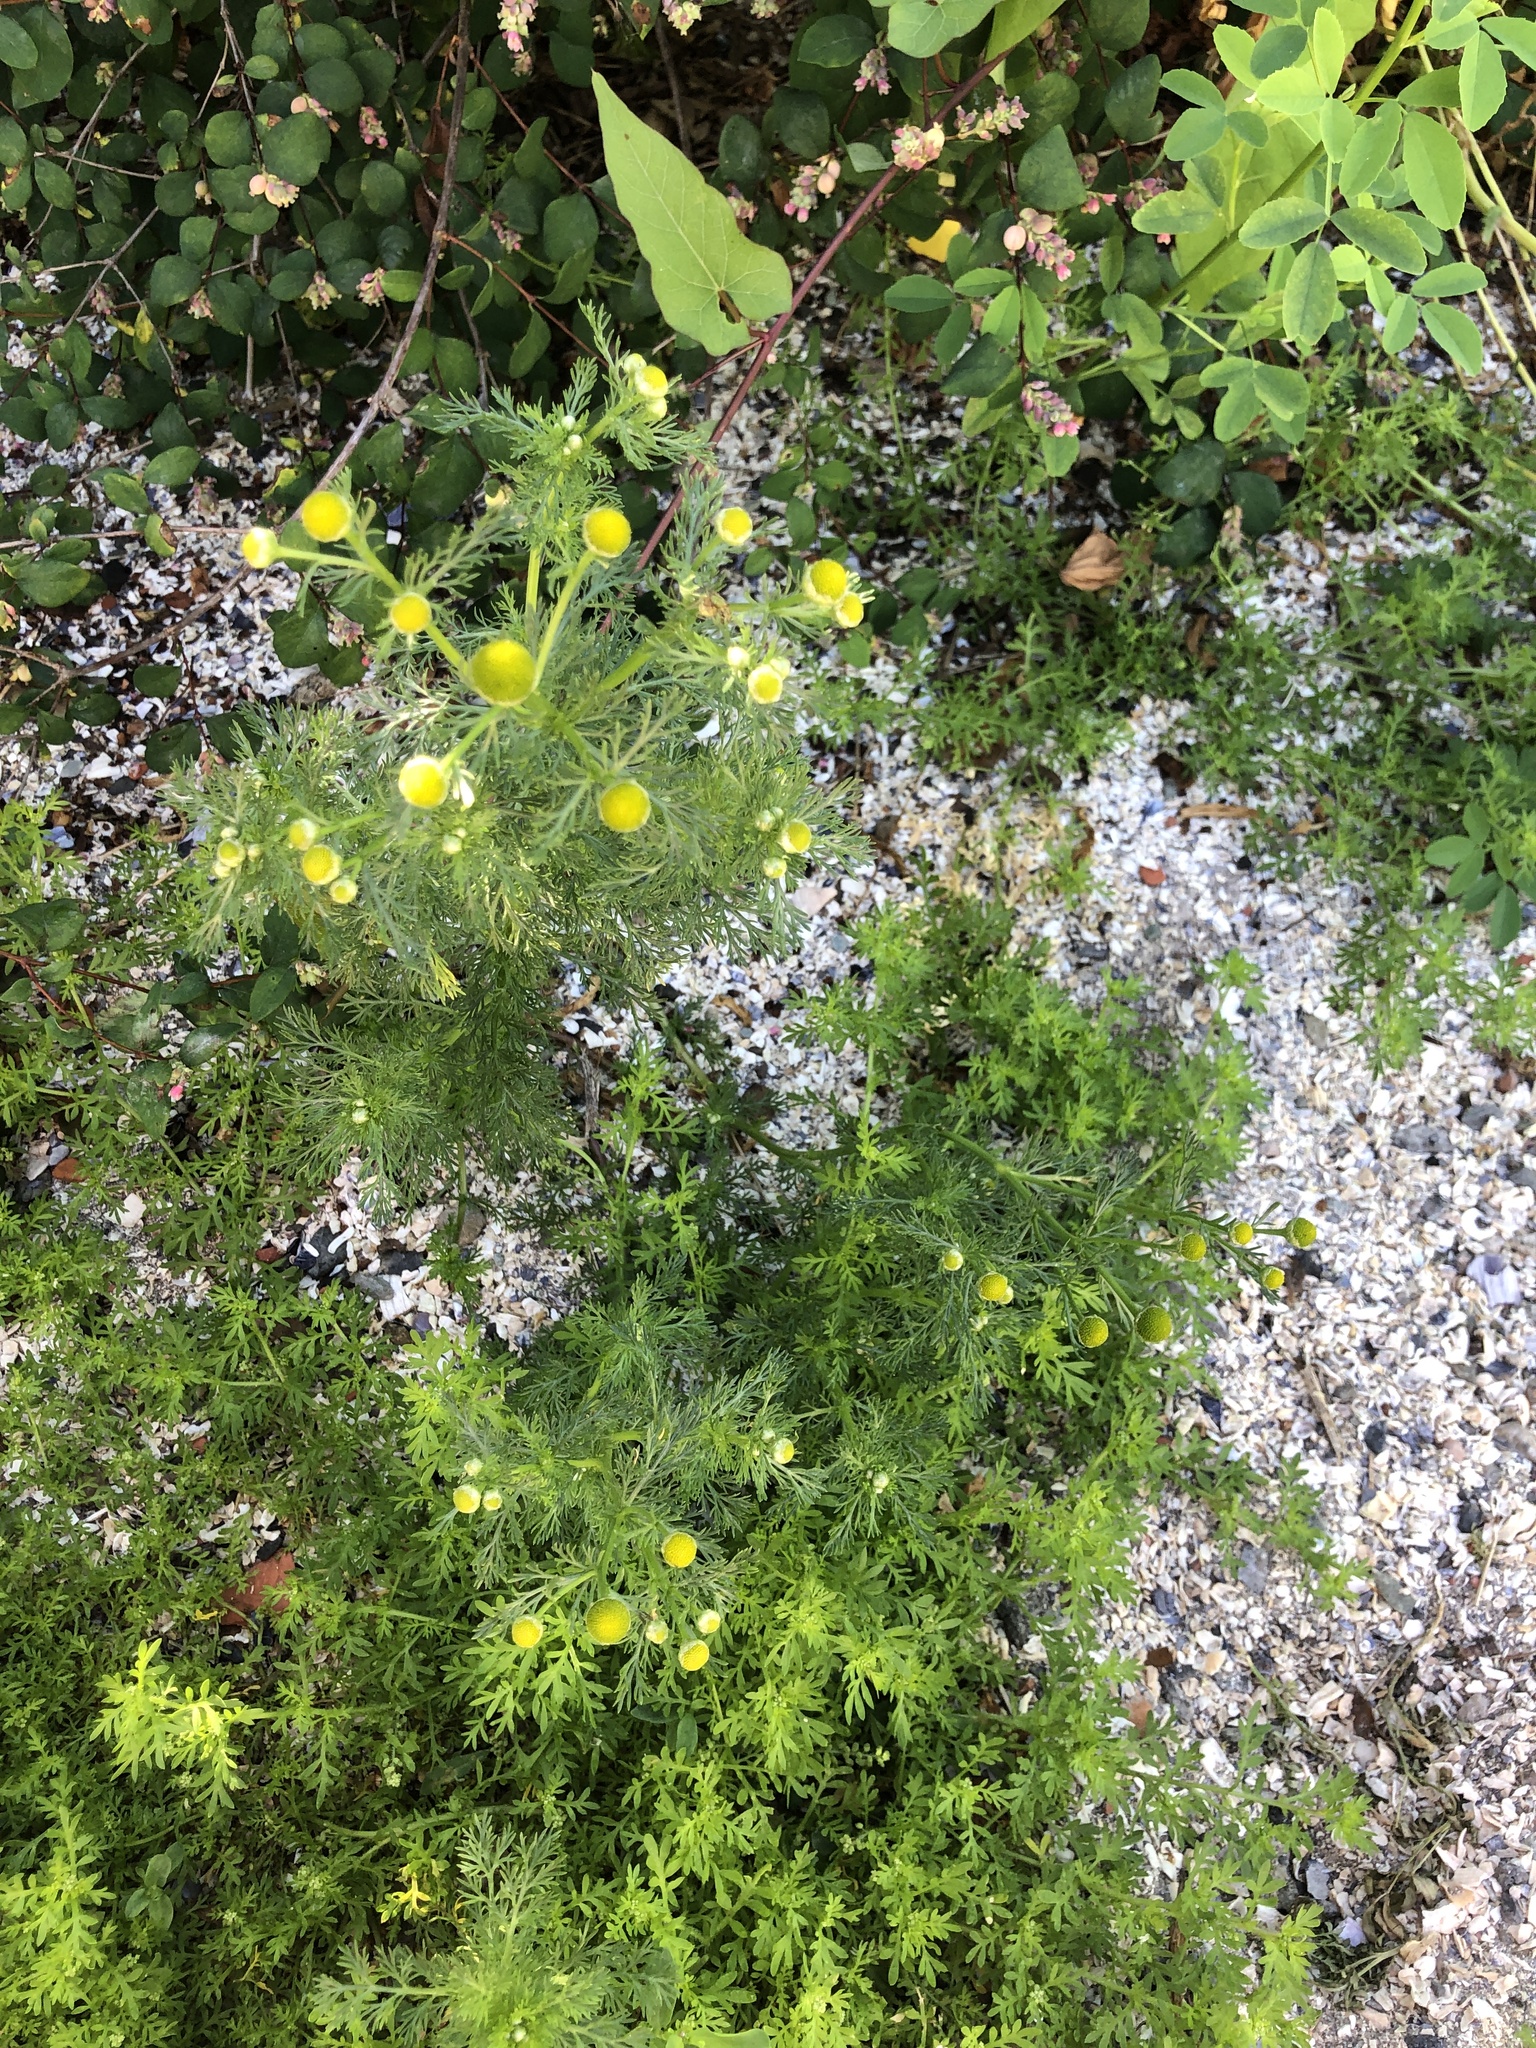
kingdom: Plantae
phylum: Tracheophyta
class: Magnoliopsida
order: Asterales
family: Asteraceae
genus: Matricaria
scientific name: Matricaria discoidea
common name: Disc mayweed
